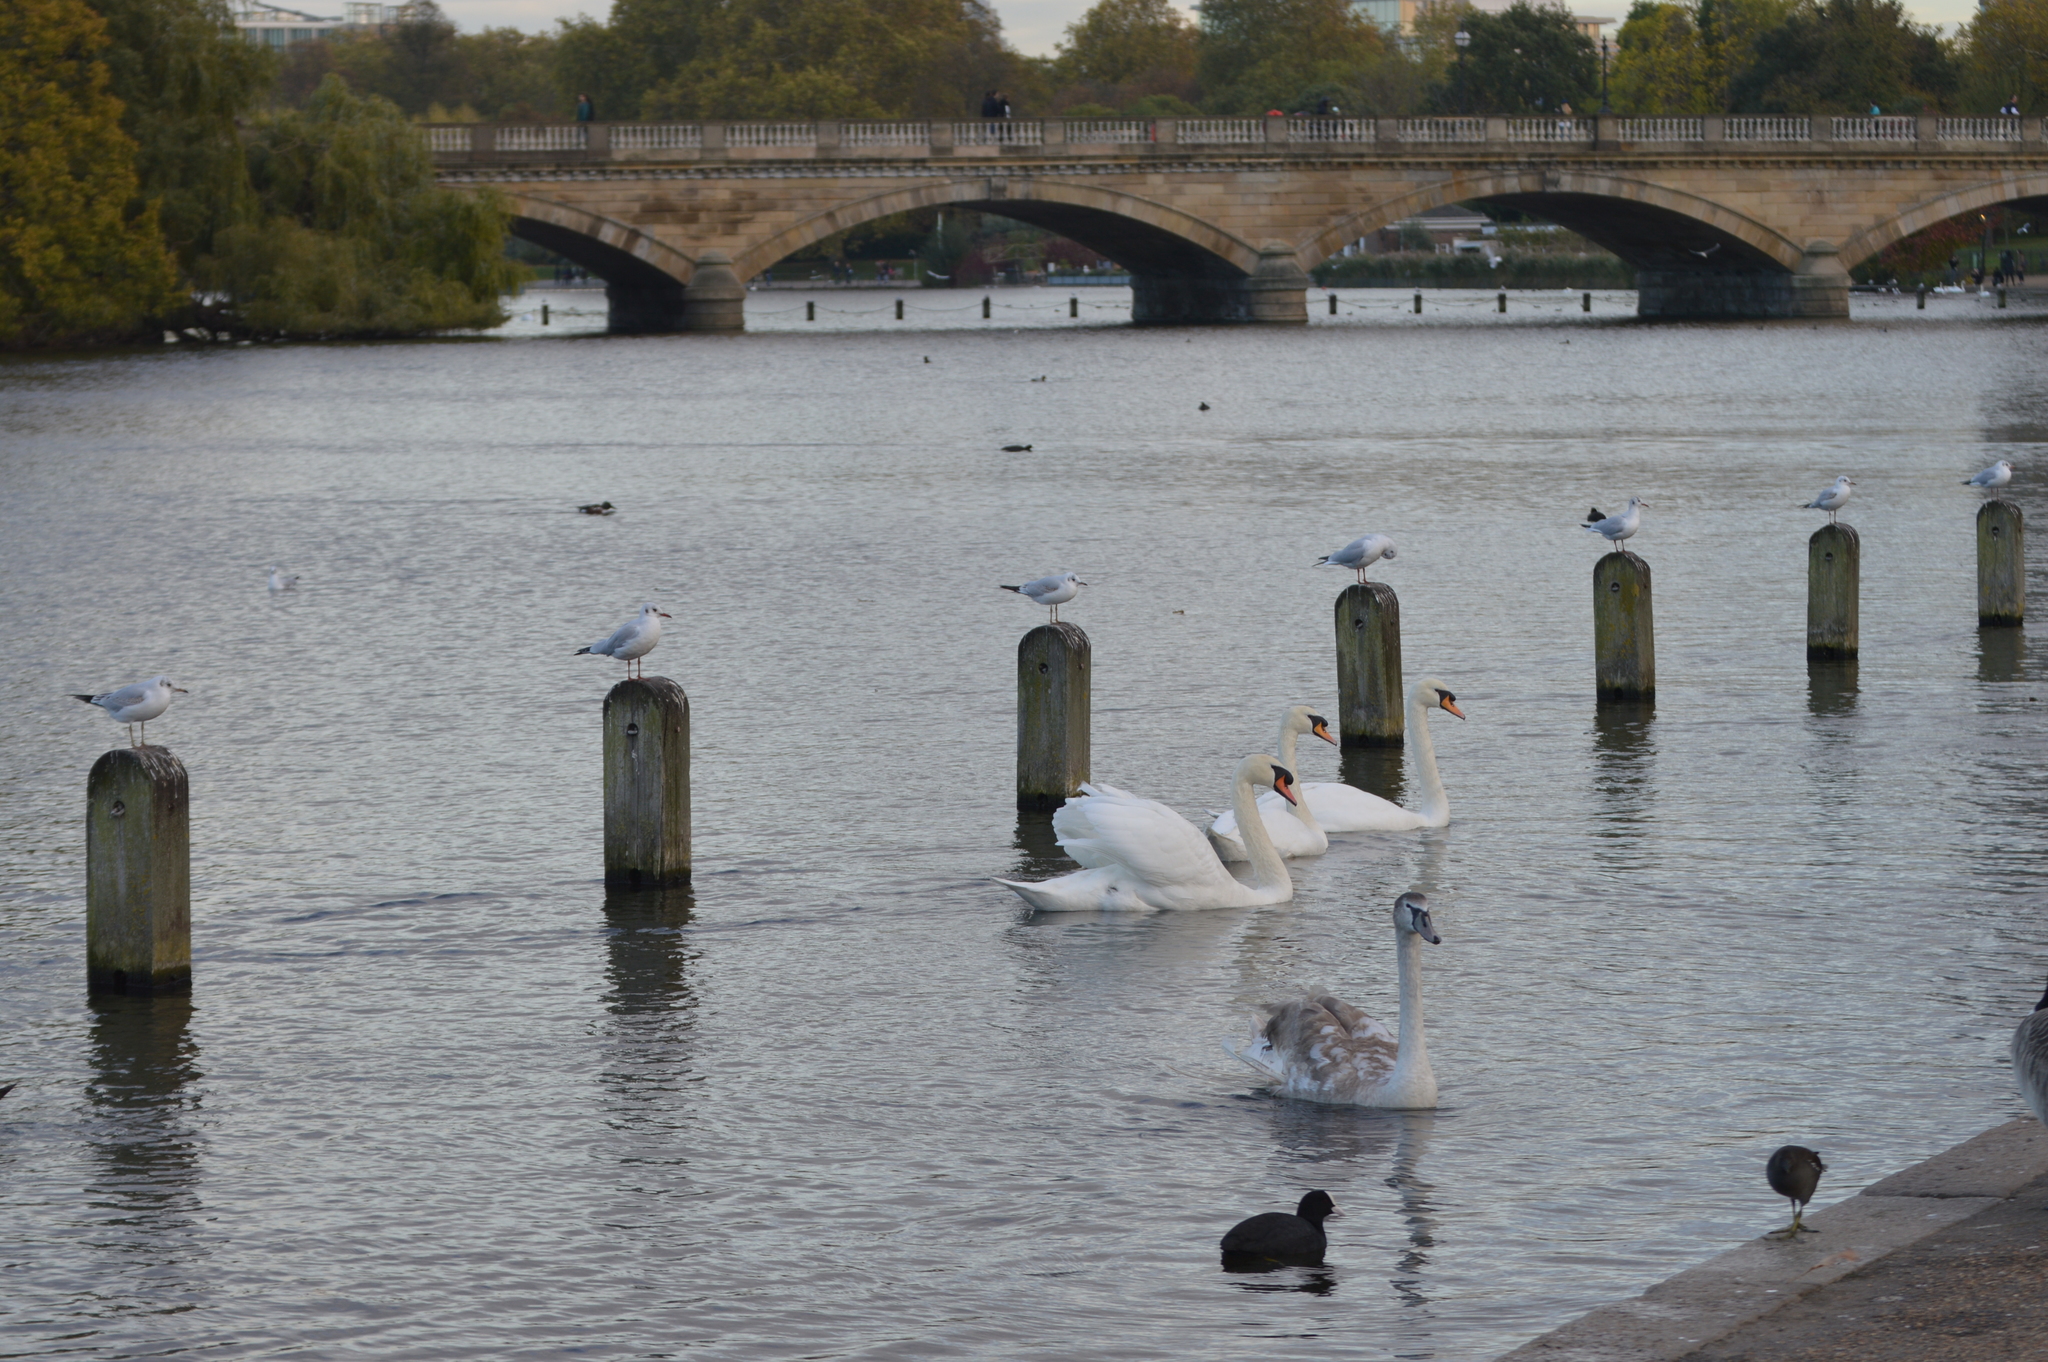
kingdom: Animalia
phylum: Chordata
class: Aves
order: Anseriformes
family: Anatidae
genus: Cygnus
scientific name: Cygnus olor
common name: Mute swan
